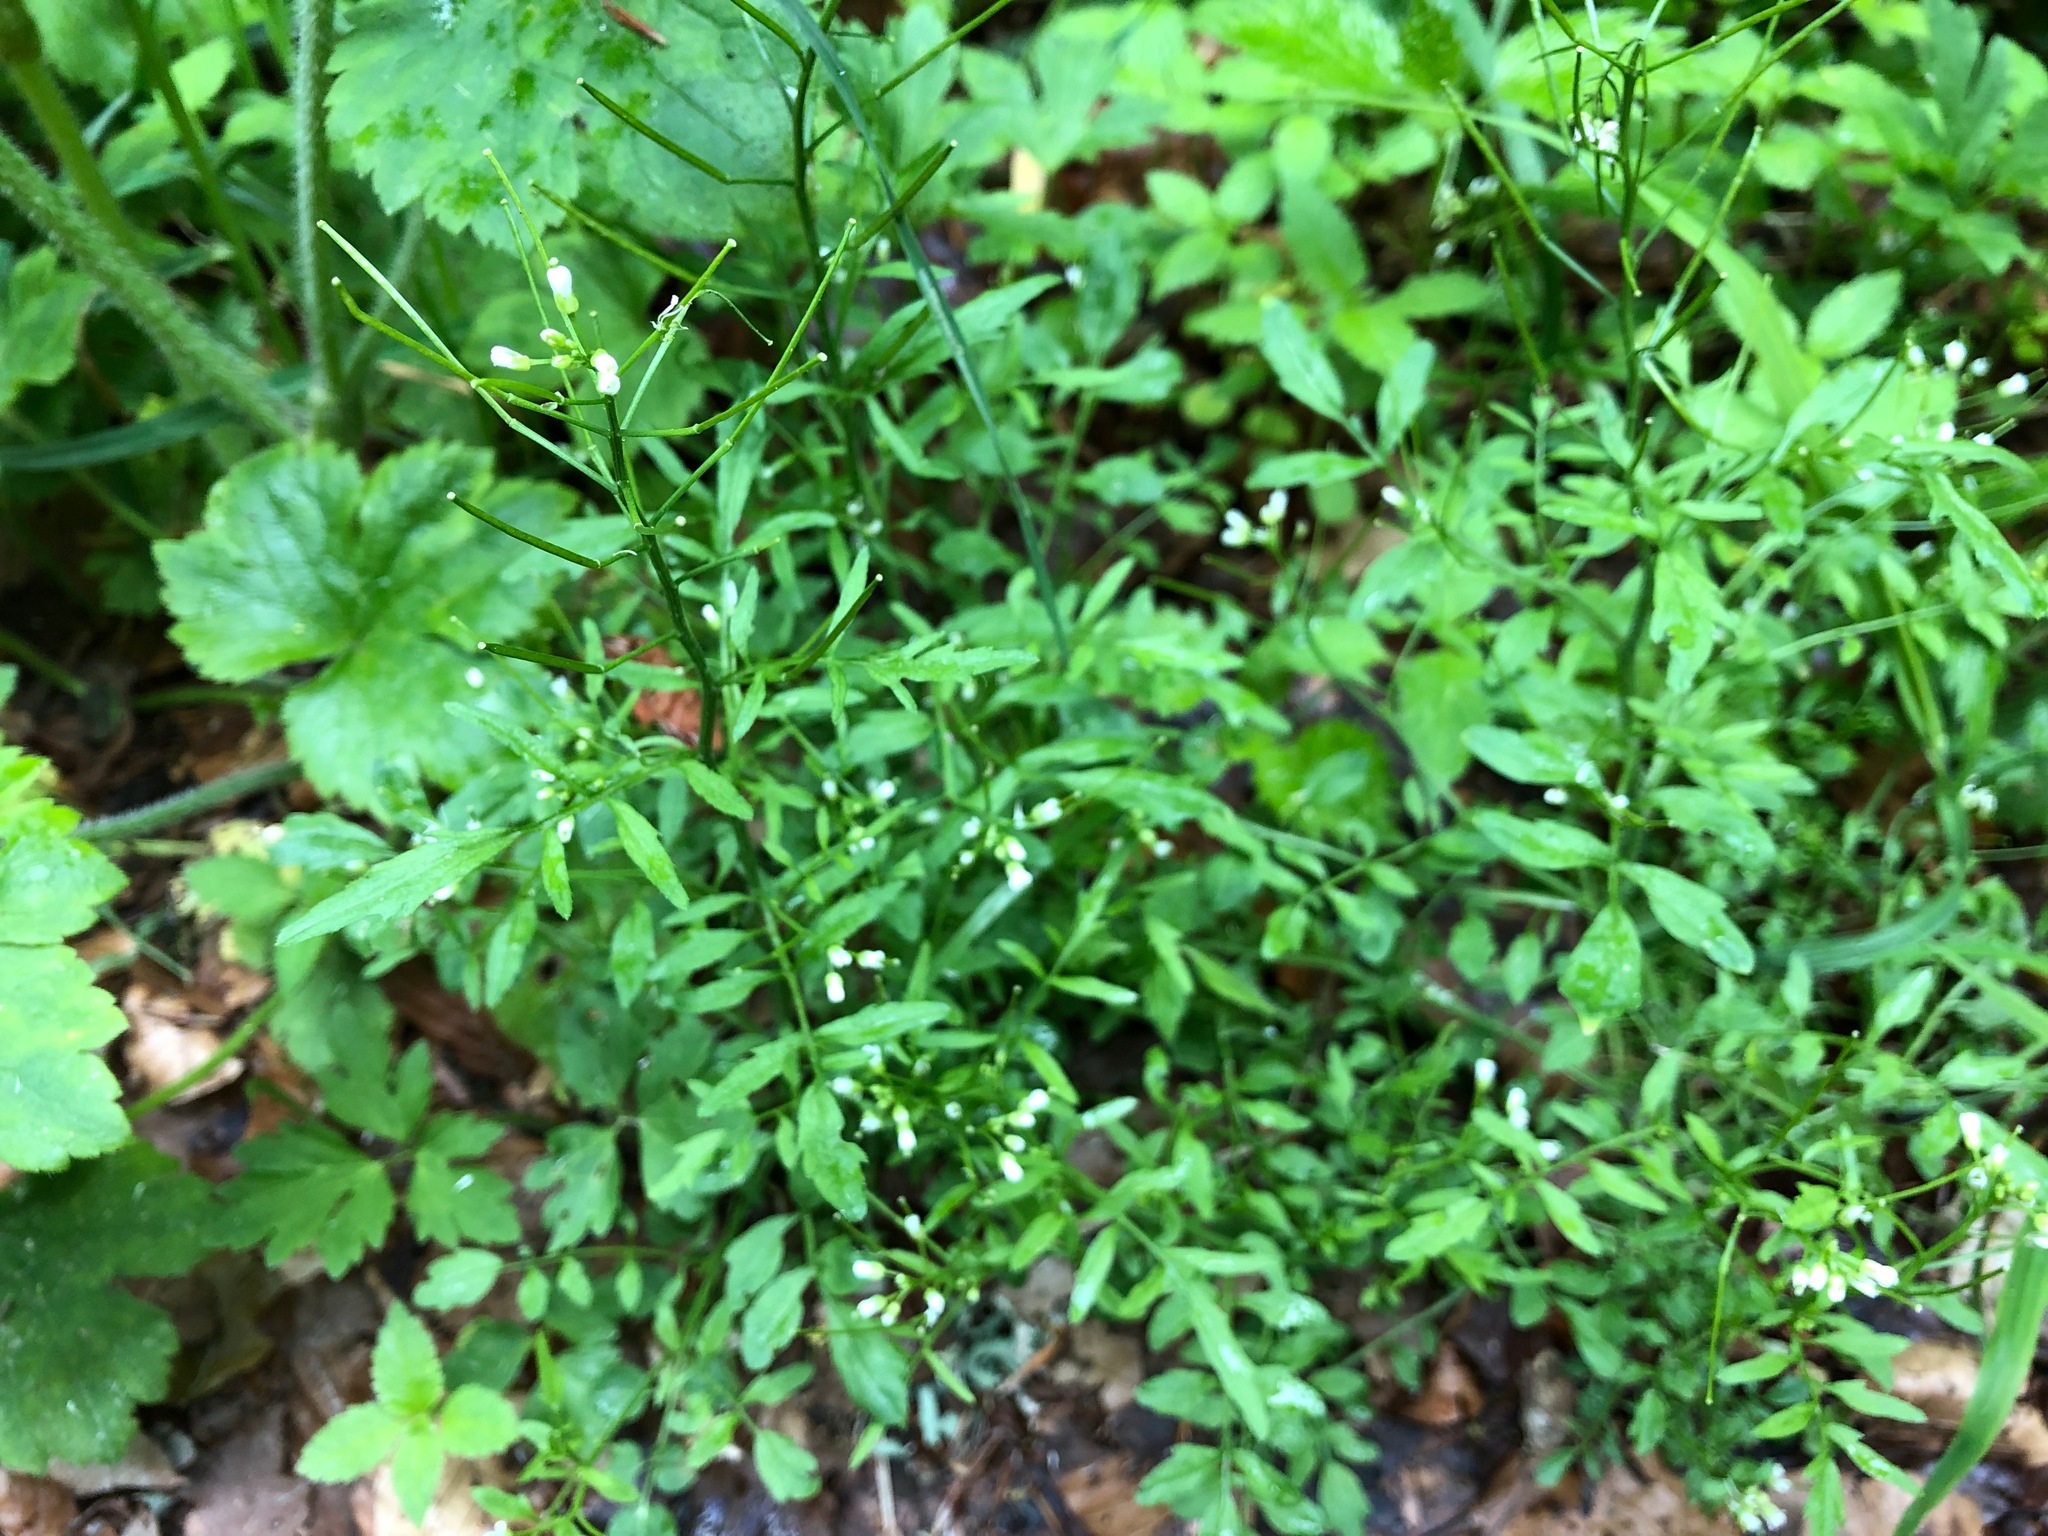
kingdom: Plantae
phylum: Tracheophyta
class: Magnoliopsida
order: Brassicales
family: Brassicaceae
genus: Cardamine
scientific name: Cardamine flexuosa
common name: Woodland bittercress
